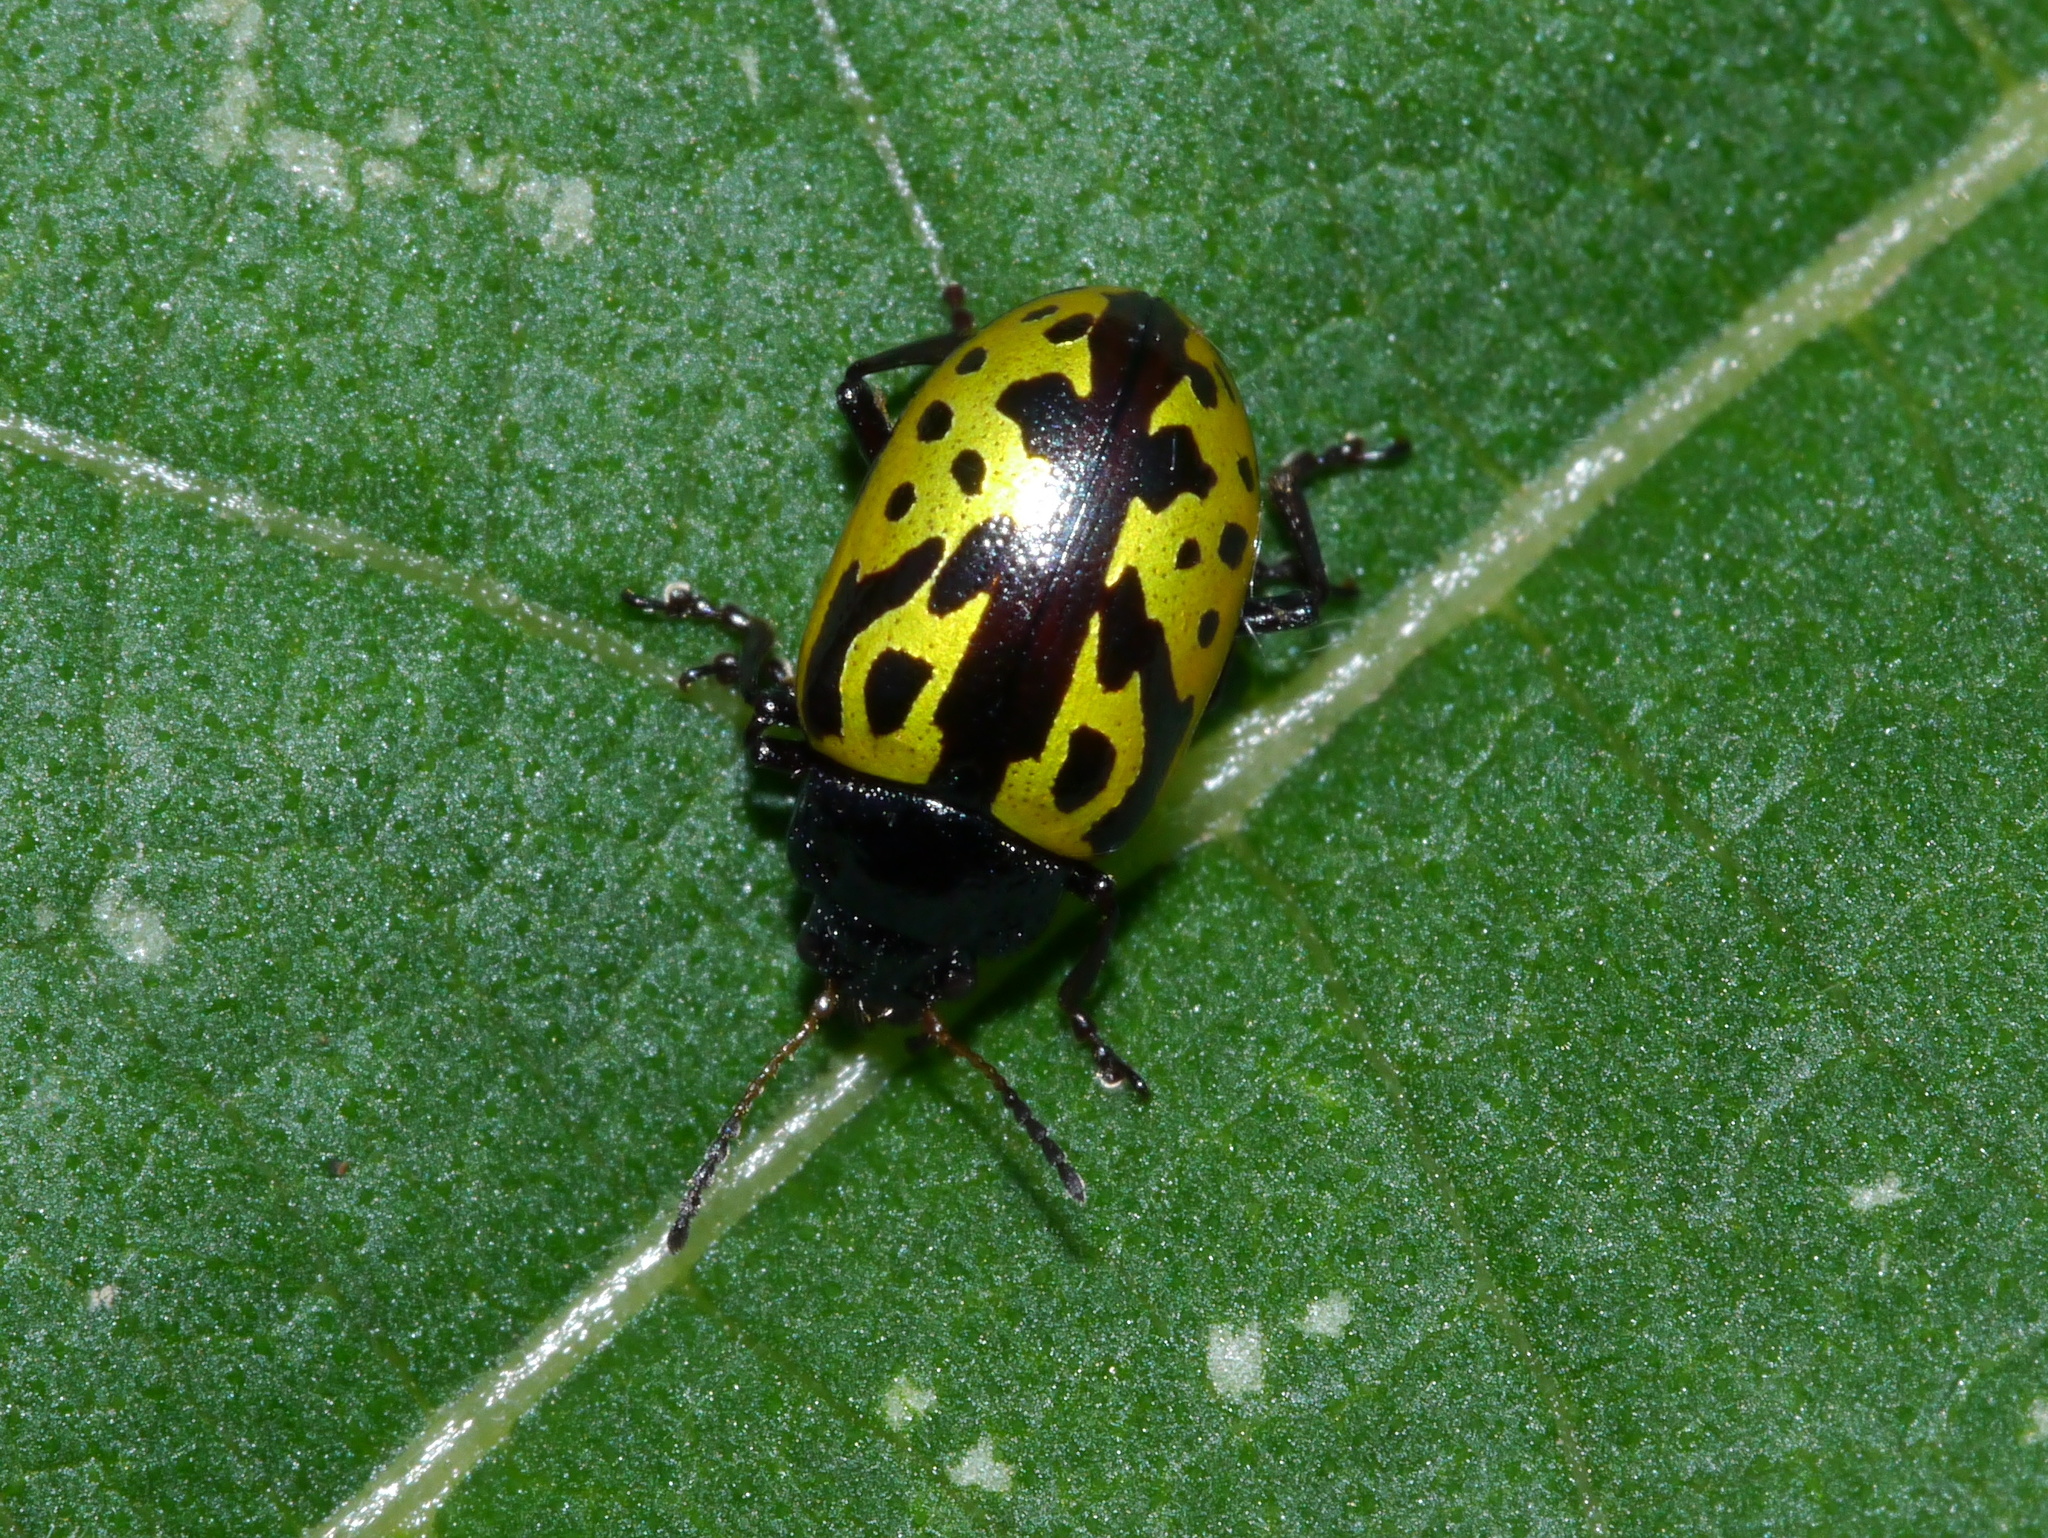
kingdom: Animalia
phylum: Arthropoda
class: Insecta
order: Coleoptera
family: Chrysomelidae
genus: Calligrapha
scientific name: Calligrapha
